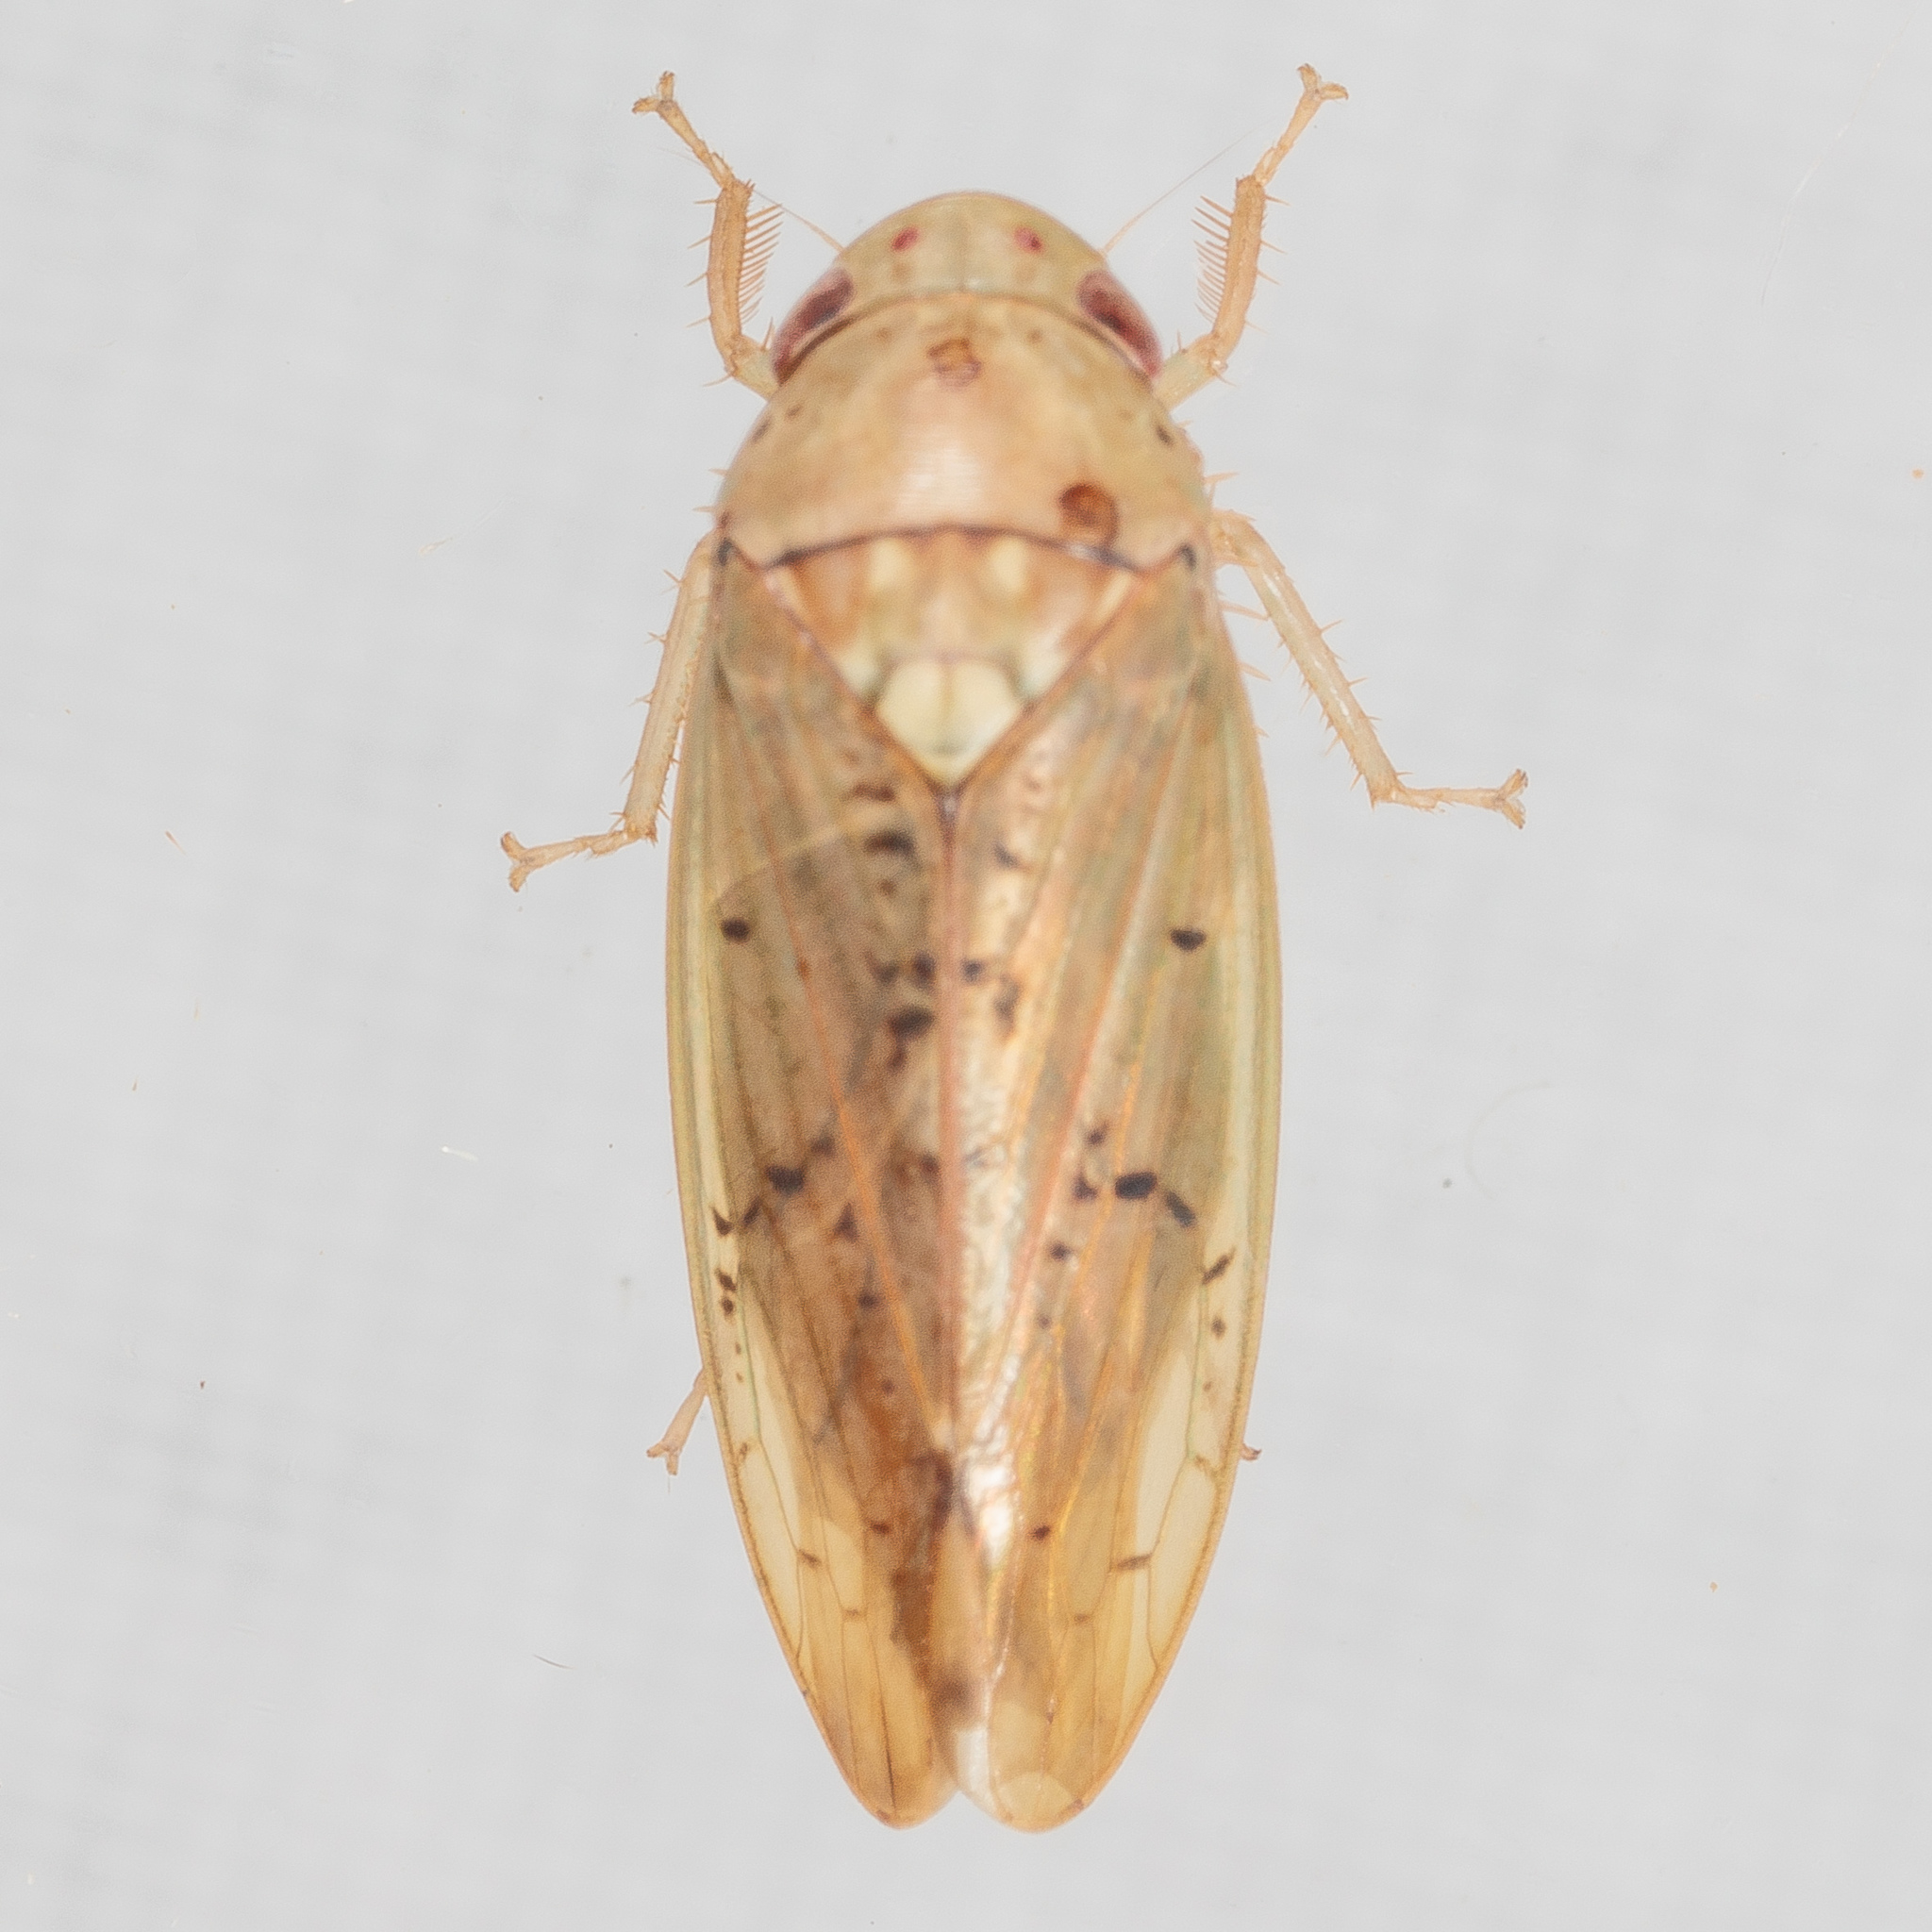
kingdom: Animalia
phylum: Arthropoda
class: Insecta
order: Hemiptera
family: Cicadellidae
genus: Ponana
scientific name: Ponana quadralaba
